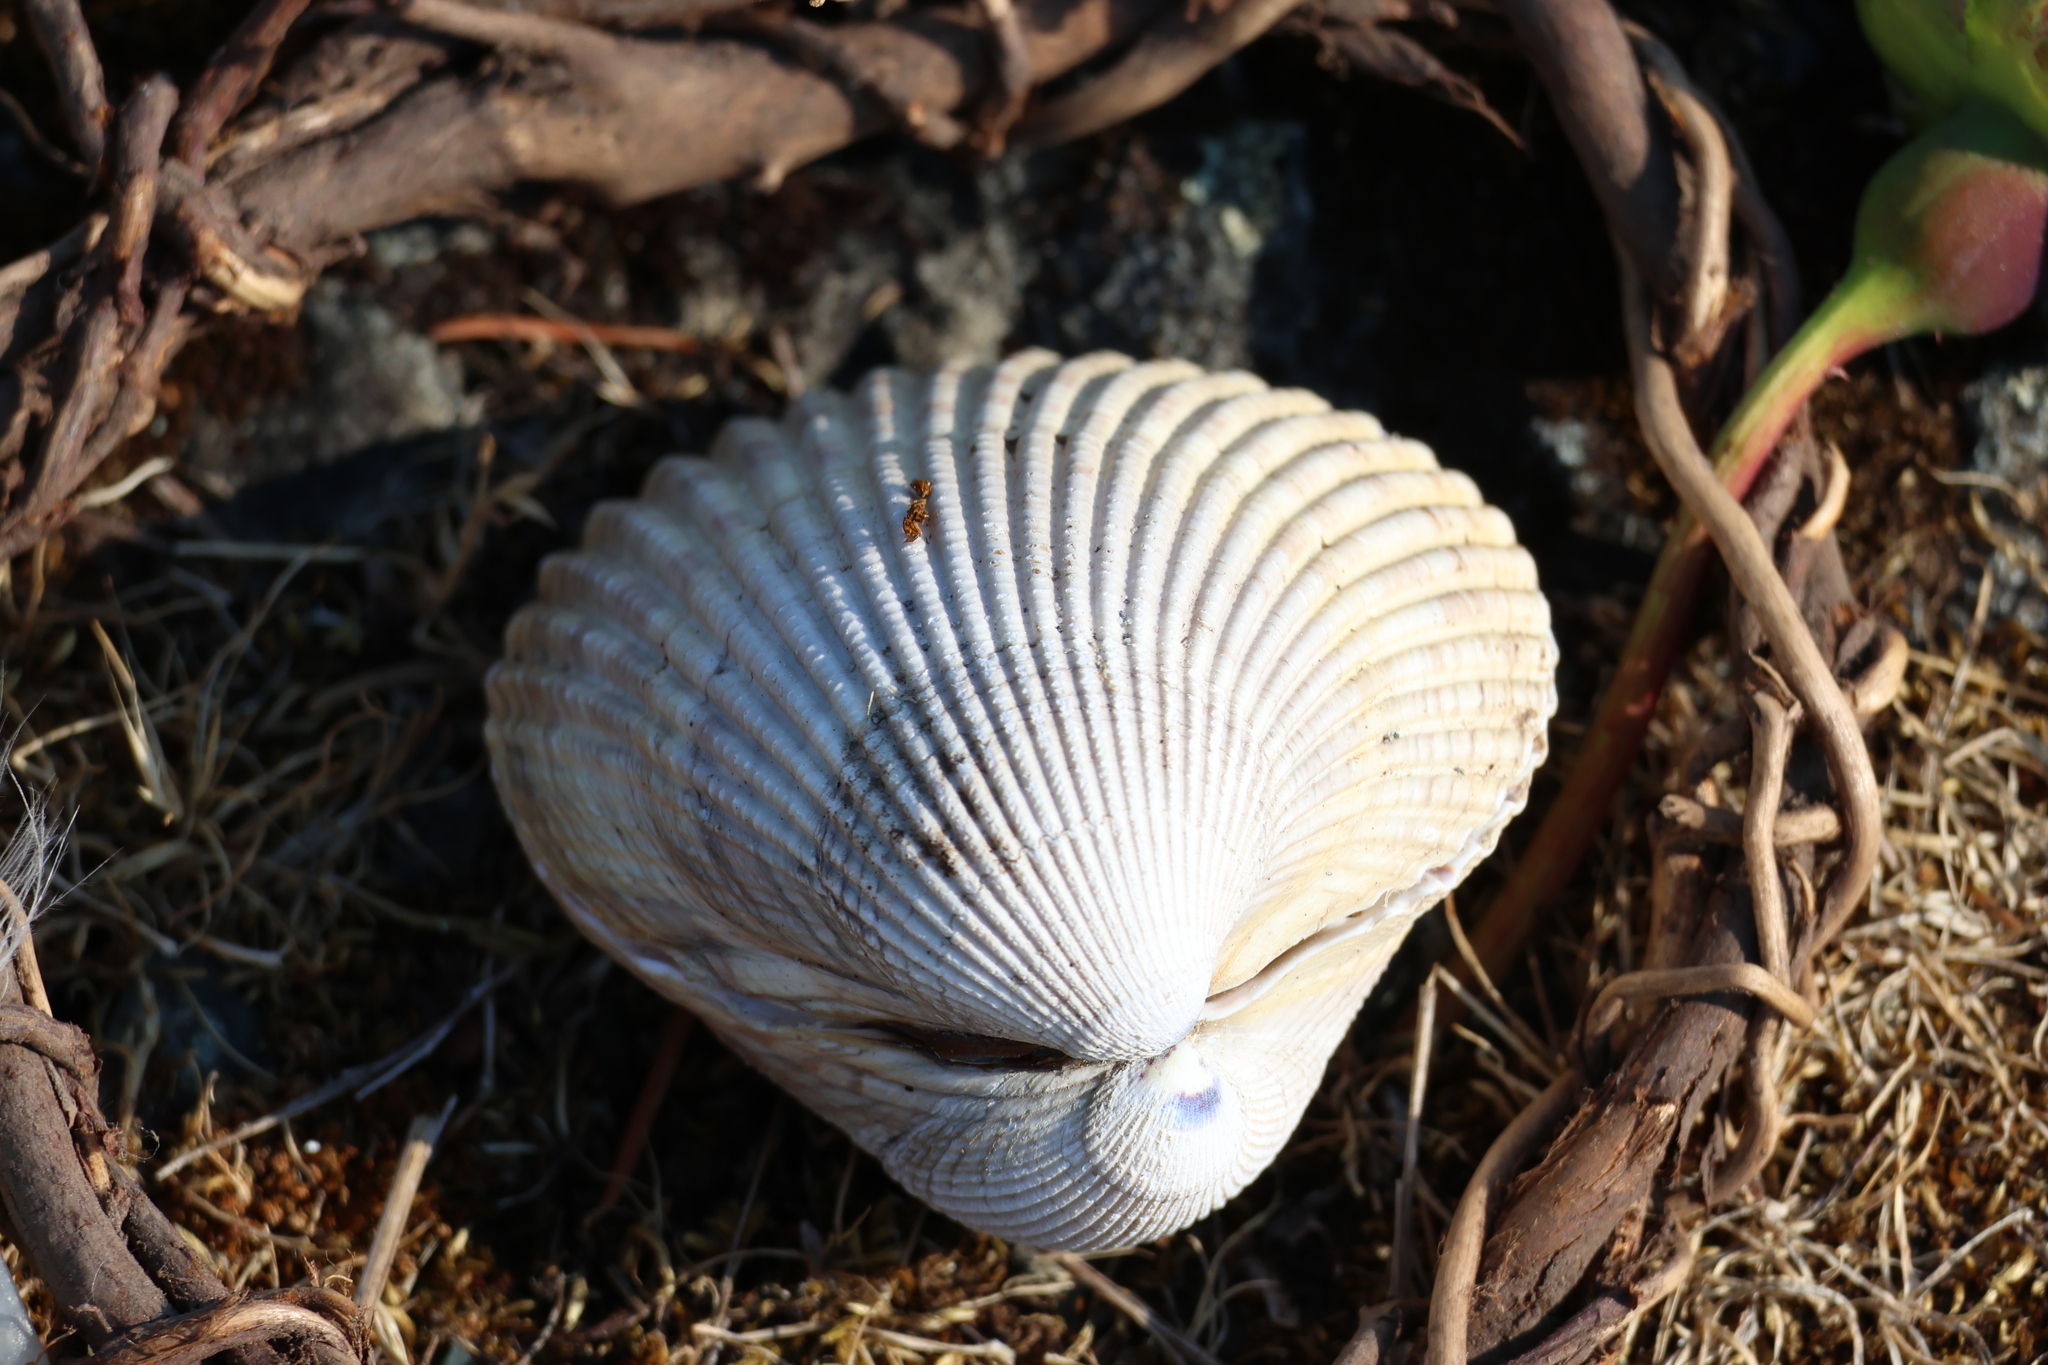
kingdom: Animalia
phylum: Mollusca
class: Bivalvia
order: Cardiida
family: Cardiidae
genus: Clinocardium
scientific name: Clinocardium nuttallii
